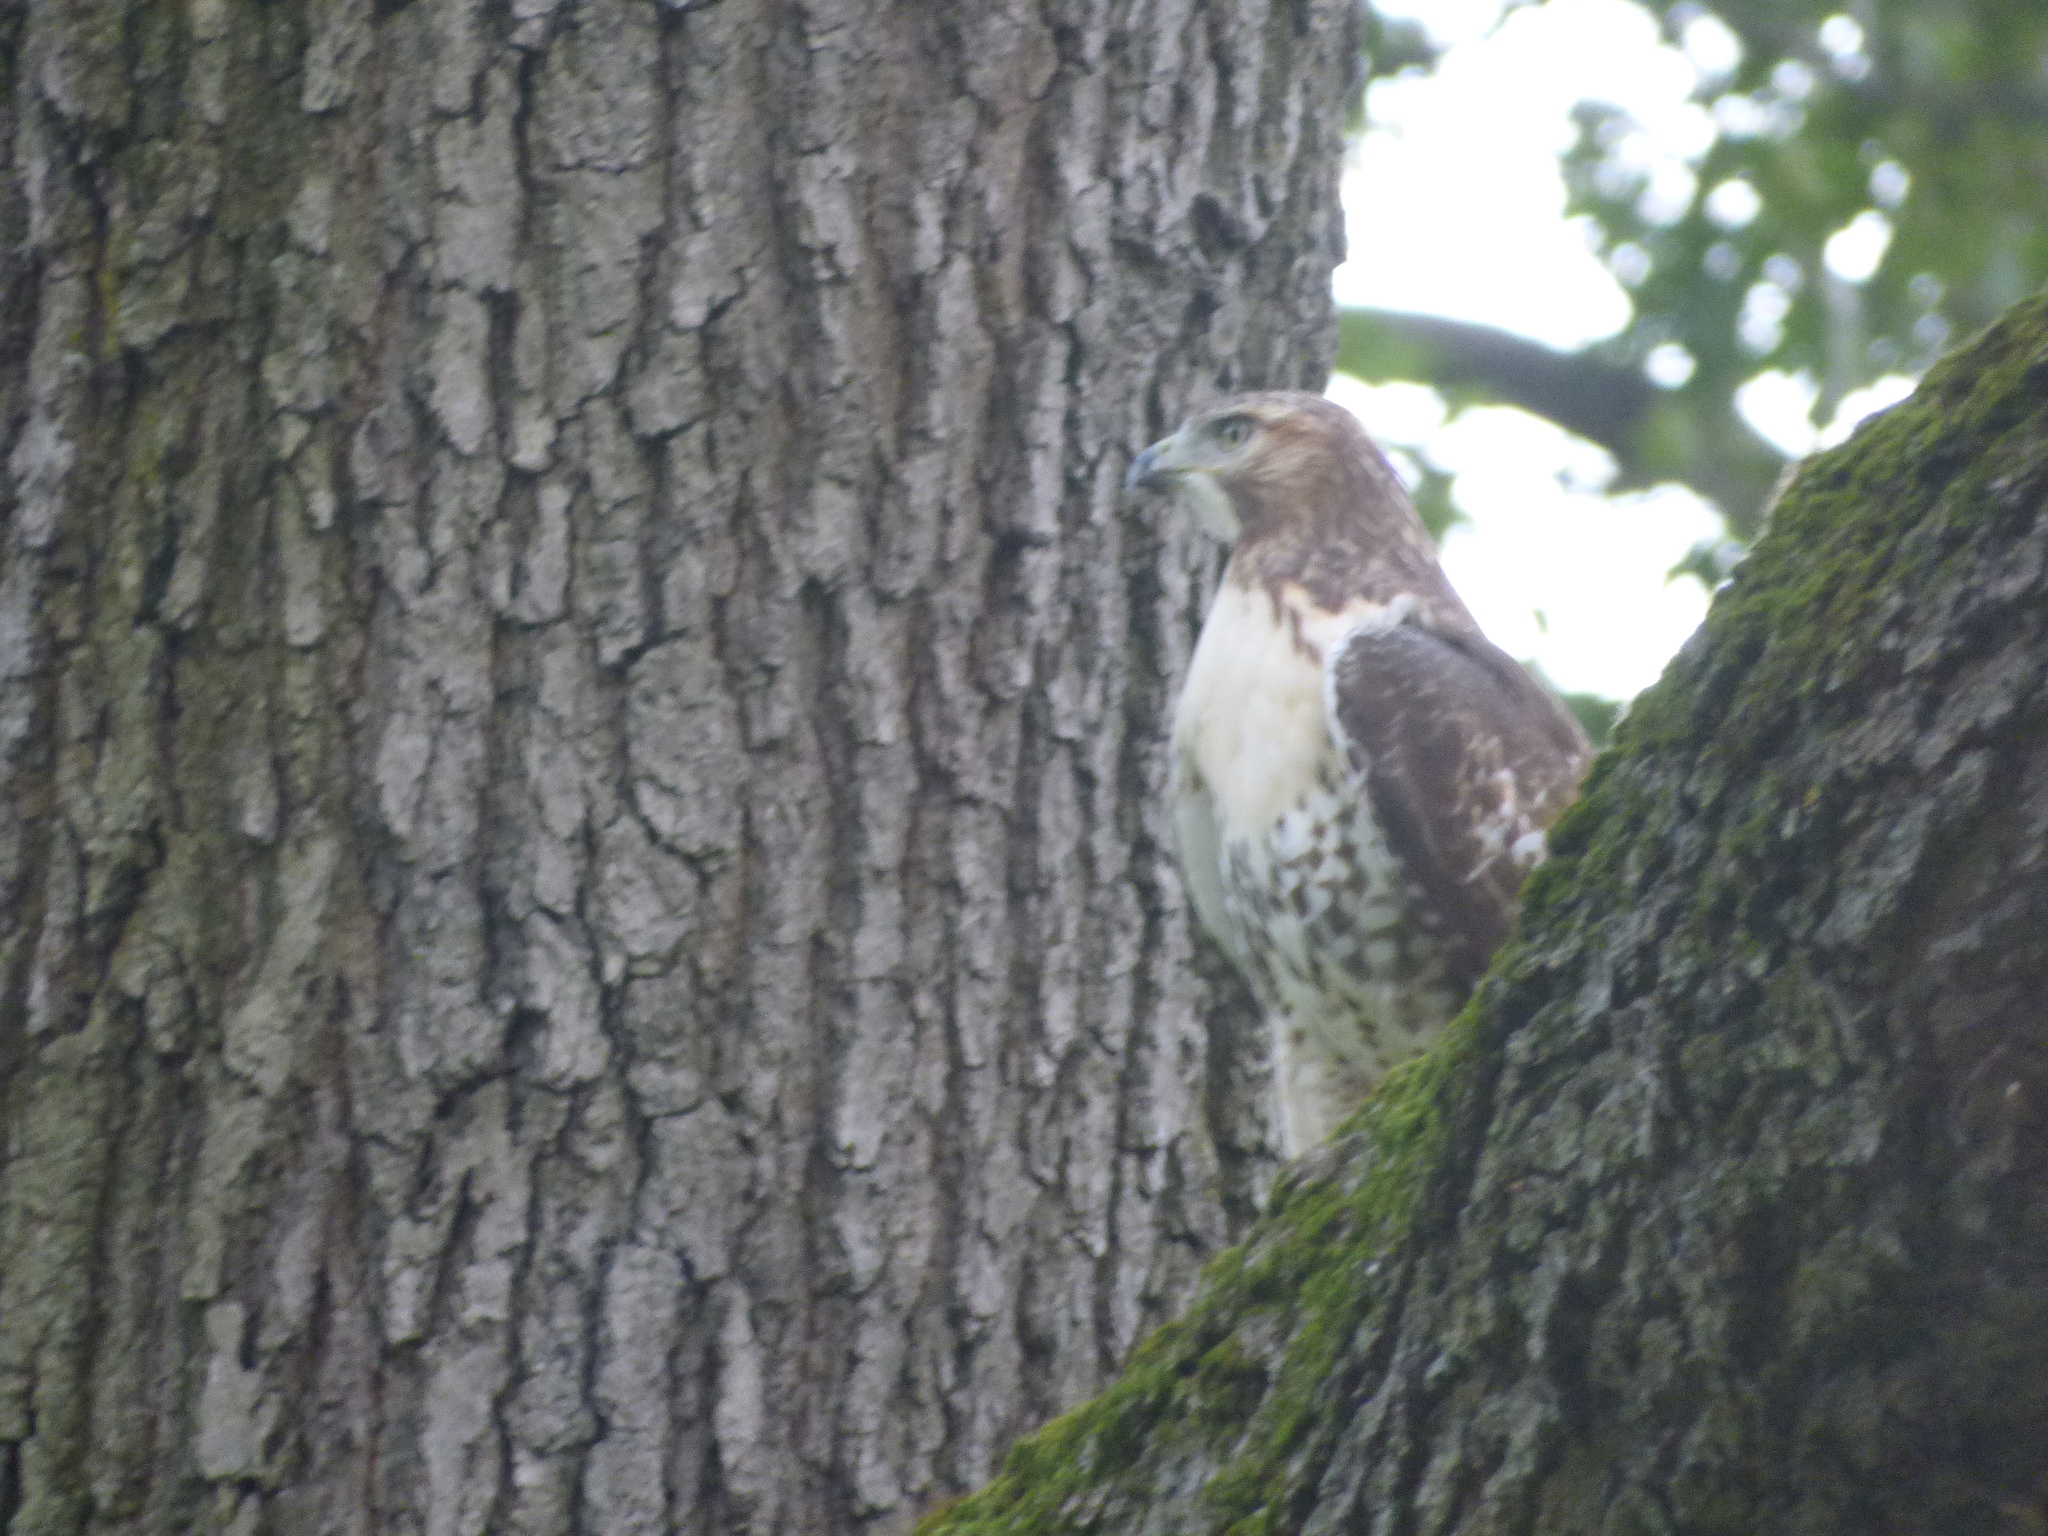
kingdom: Animalia
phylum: Chordata
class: Aves
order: Accipitriformes
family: Accipitridae
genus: Buteo
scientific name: Buteo jamaicensis
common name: Red-tailed hawk
